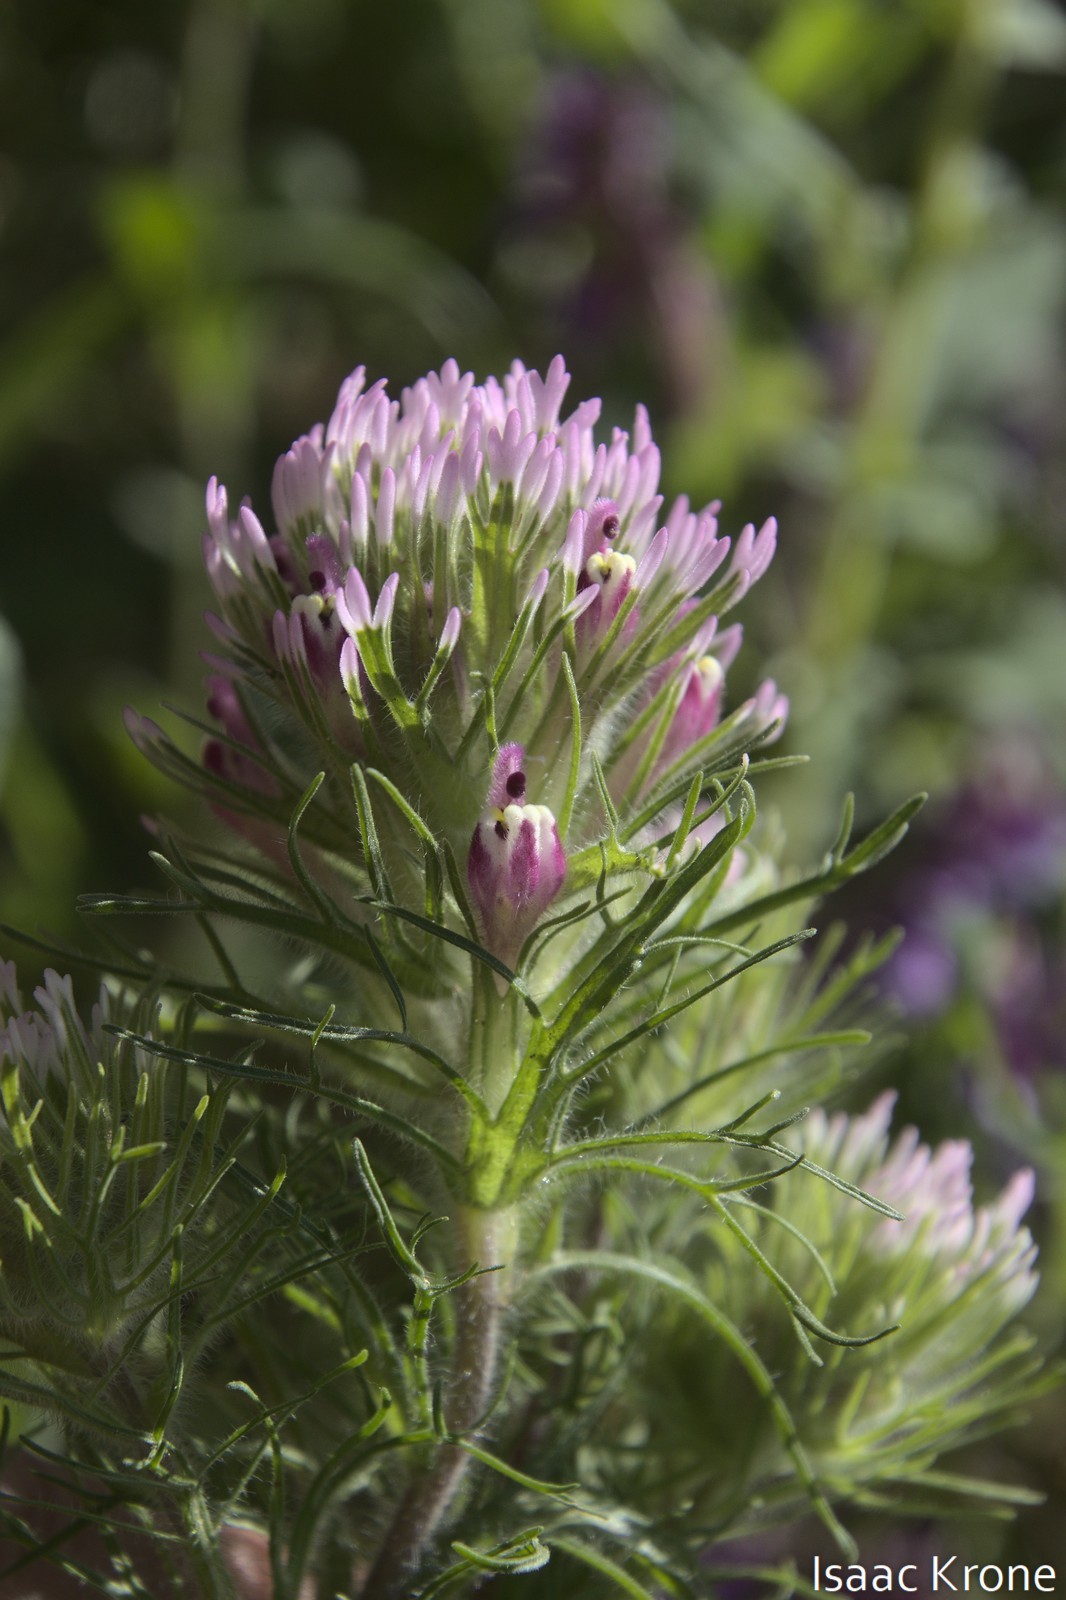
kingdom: Plantae
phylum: Tracheophyta
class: Magnoliopsida
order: Lamiales
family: Orobanchaceae
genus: Castilleja
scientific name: Castilleja exserta
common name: Purple owl-clover
